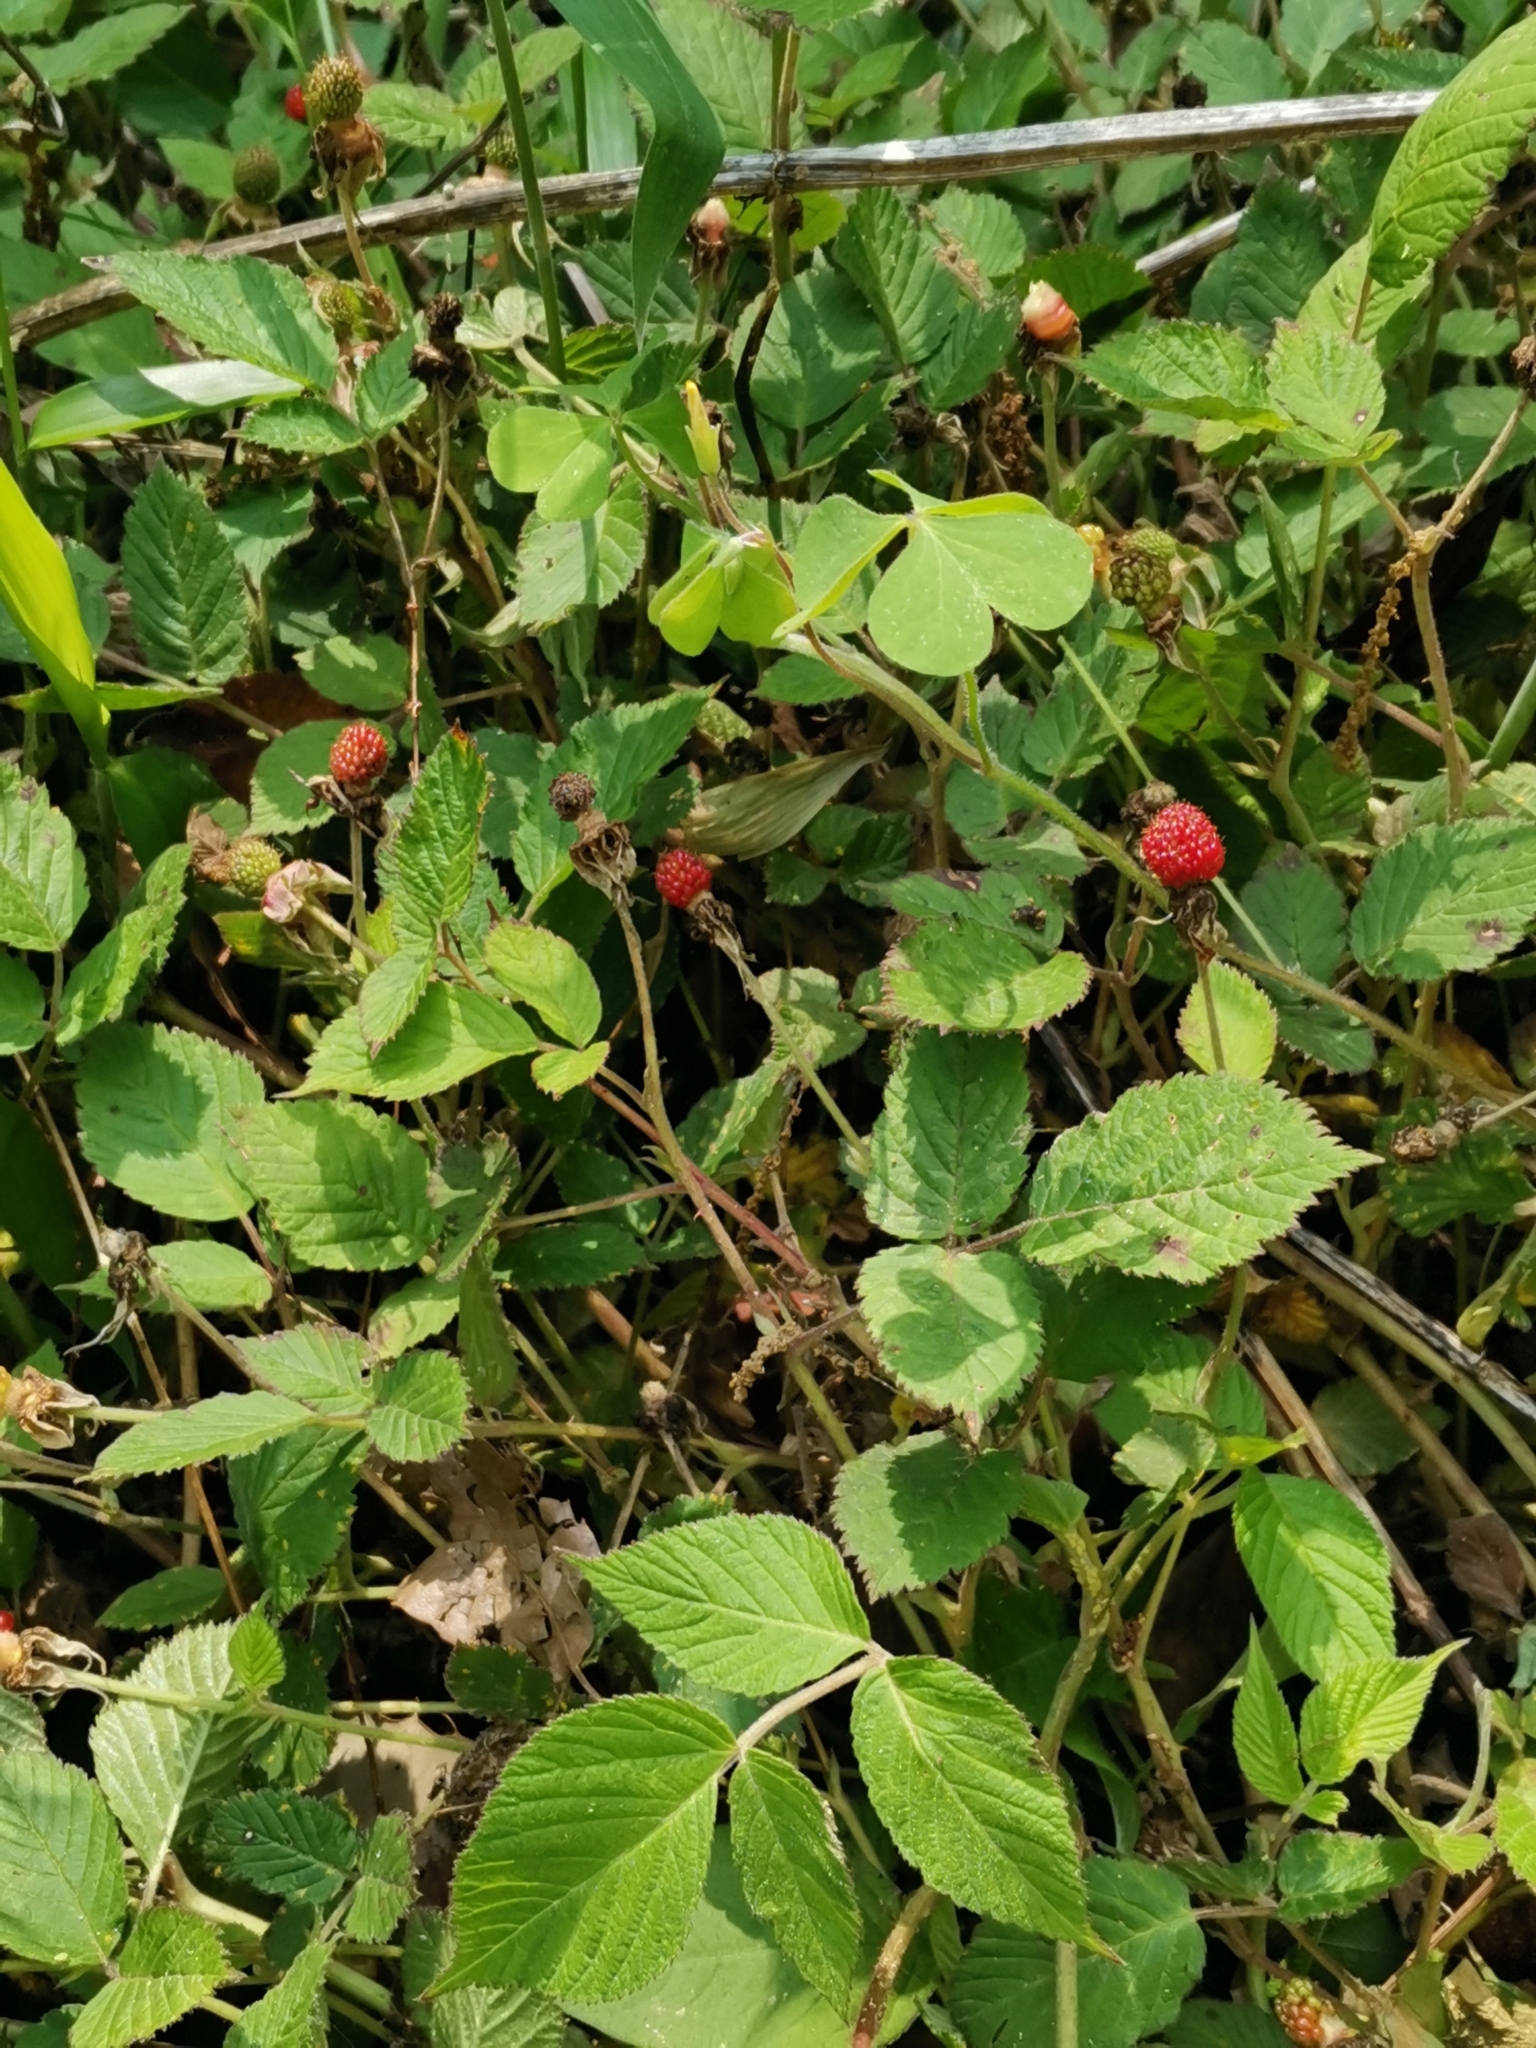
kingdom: Plantae
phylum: Tracheophyta
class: Magnoliopsida
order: Rosales
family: Rosaceae
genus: Rubus
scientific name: Rubus hirsutus
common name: Hirsute raspberry
